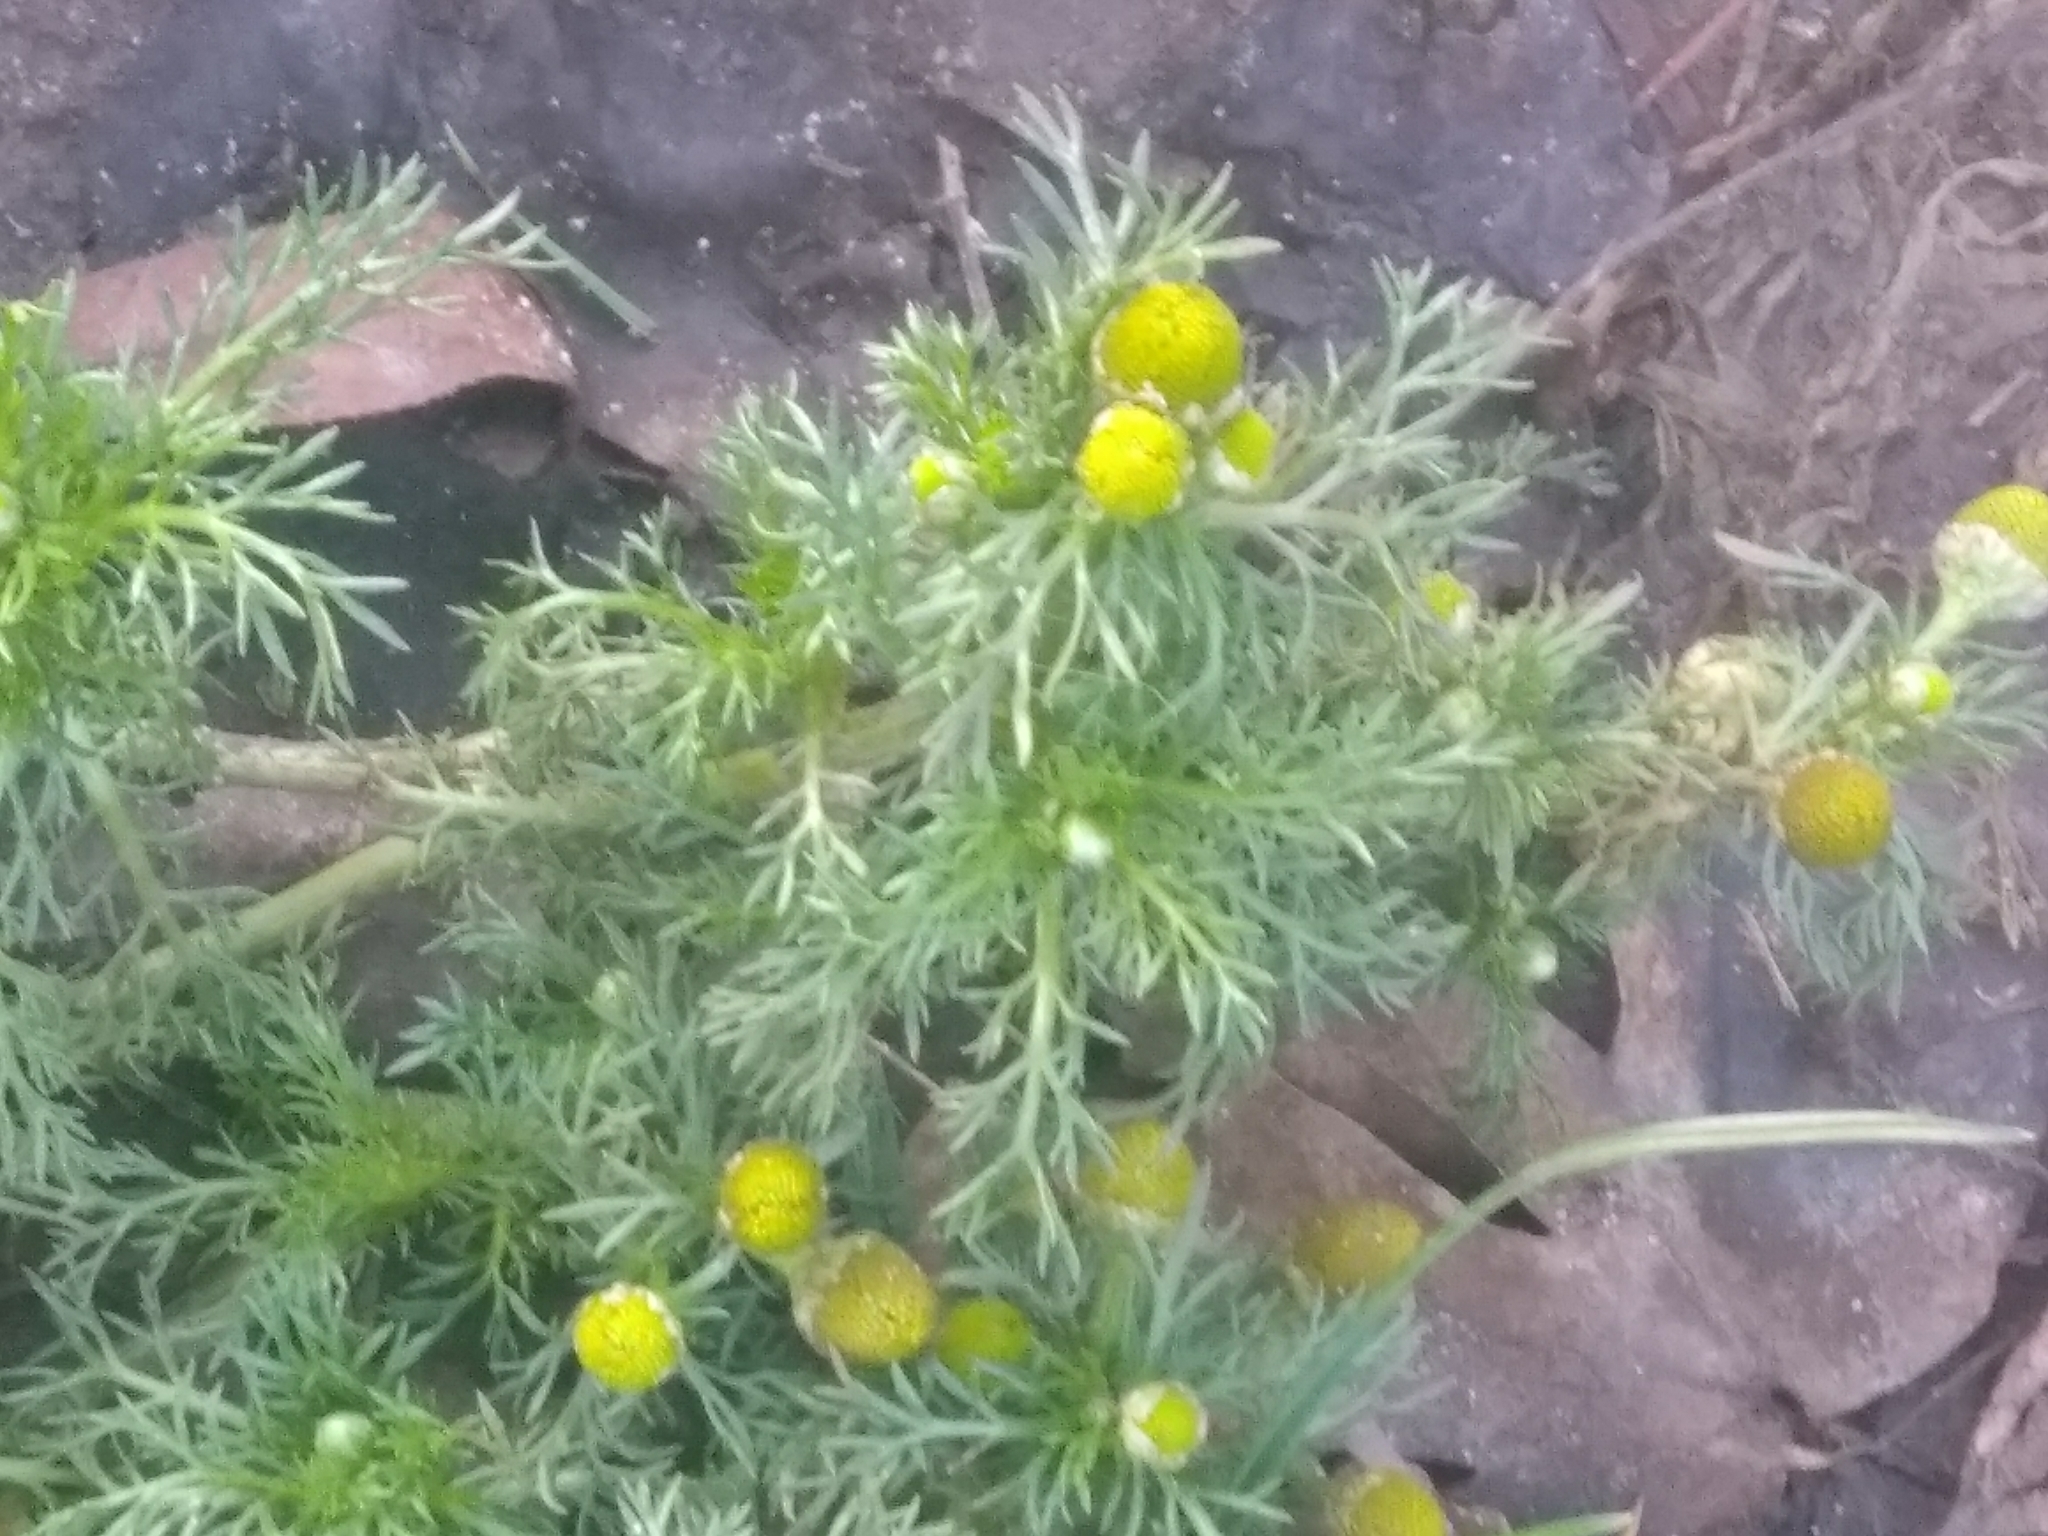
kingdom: Plantae
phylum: Tracheophyta
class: Magnoliopsida
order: Asterales
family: Asteraceae
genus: Matricaria
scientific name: Matricaria discoidea
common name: Disc mayweed
